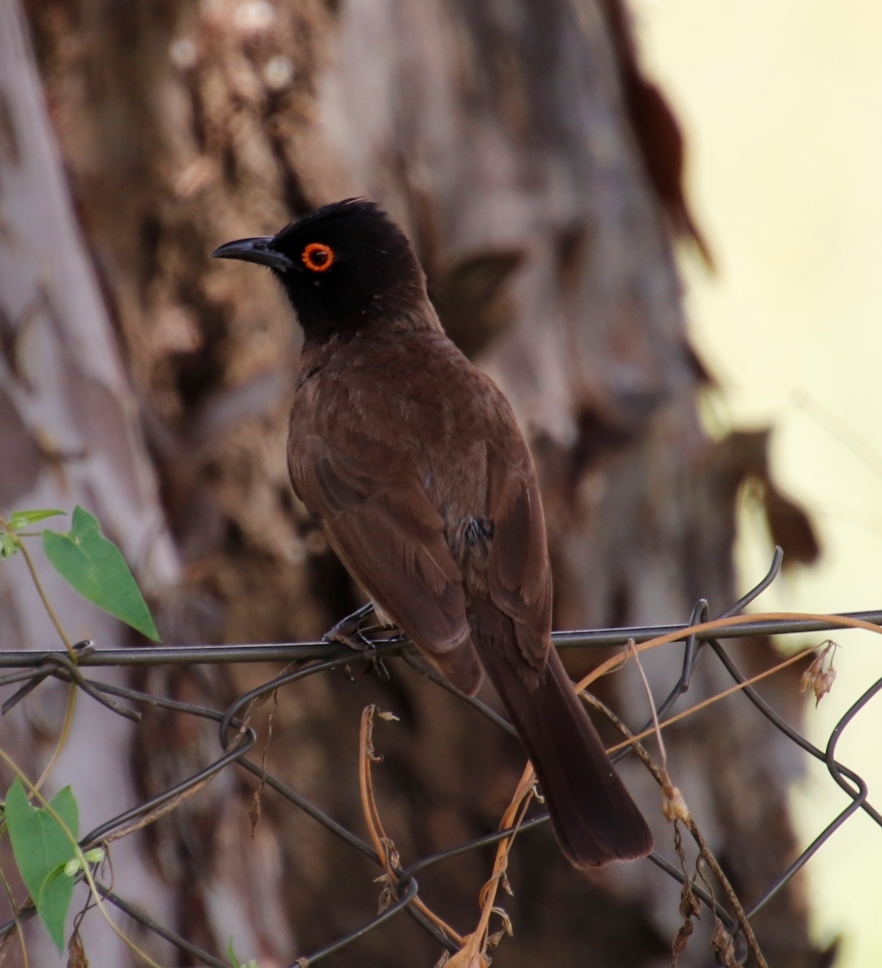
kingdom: Animalia
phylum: Chordata
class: Aves
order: Passeriformes
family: Pycnonotidae
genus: Pycnonotus
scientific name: Pycnonotus nigricans
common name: African red-eyed bulbul
